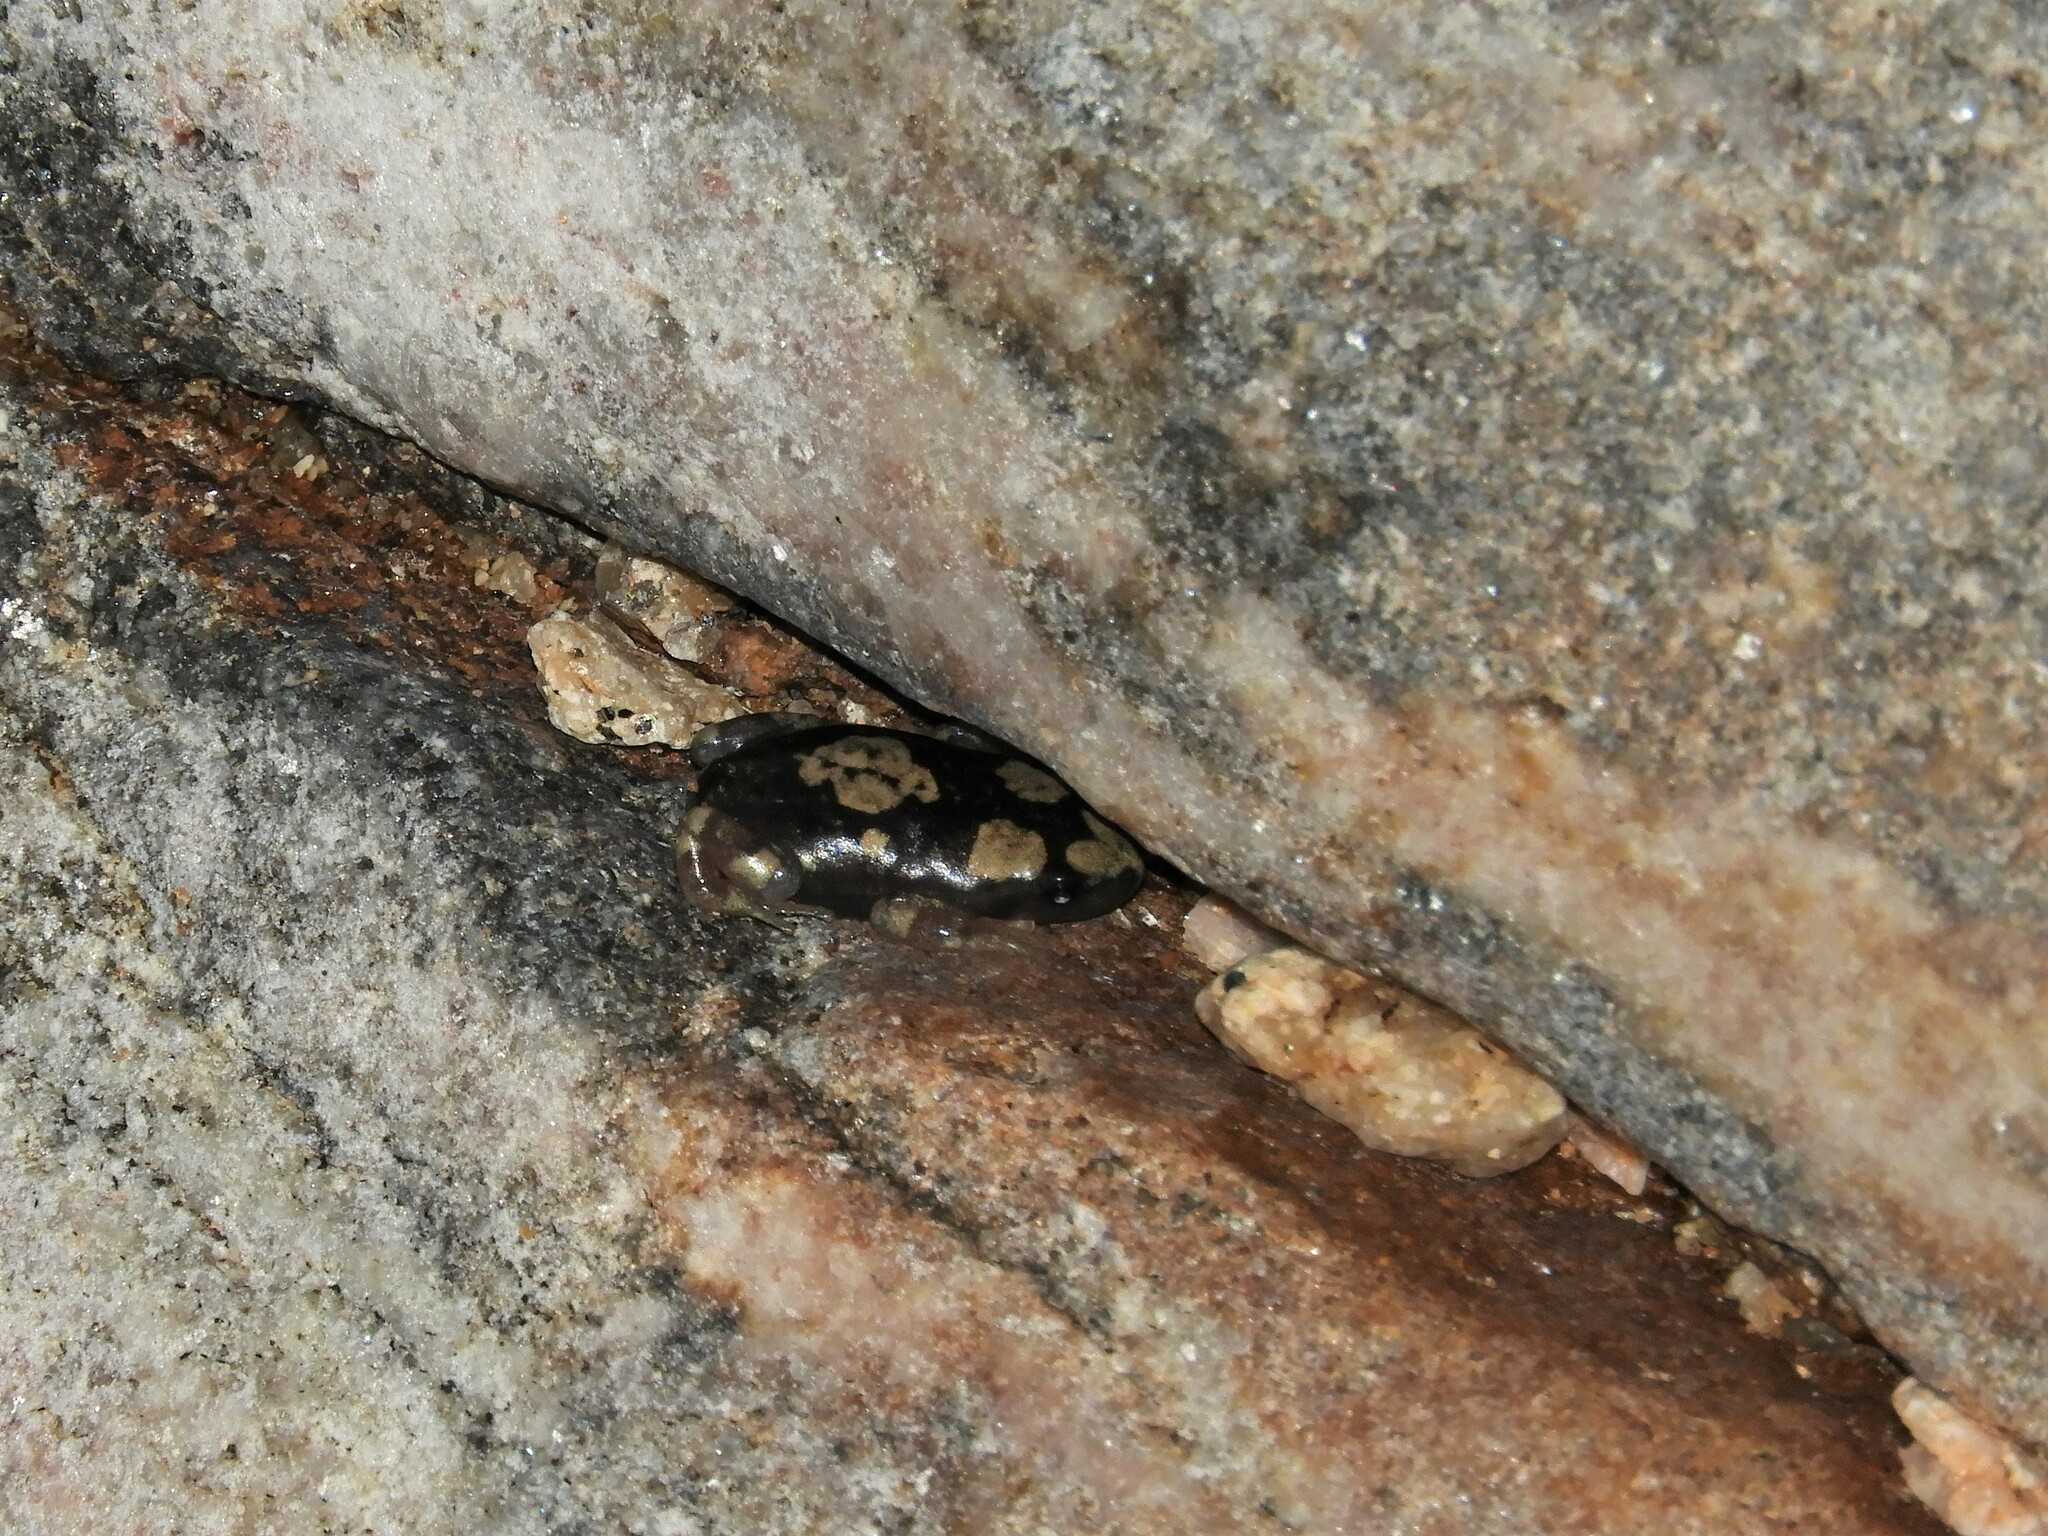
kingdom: Animalia
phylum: Chordata
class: Amphibia
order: Anura
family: Microhylidae
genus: Phrynomantis
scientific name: Phrynomantis annectens
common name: Marbled rubber frog
